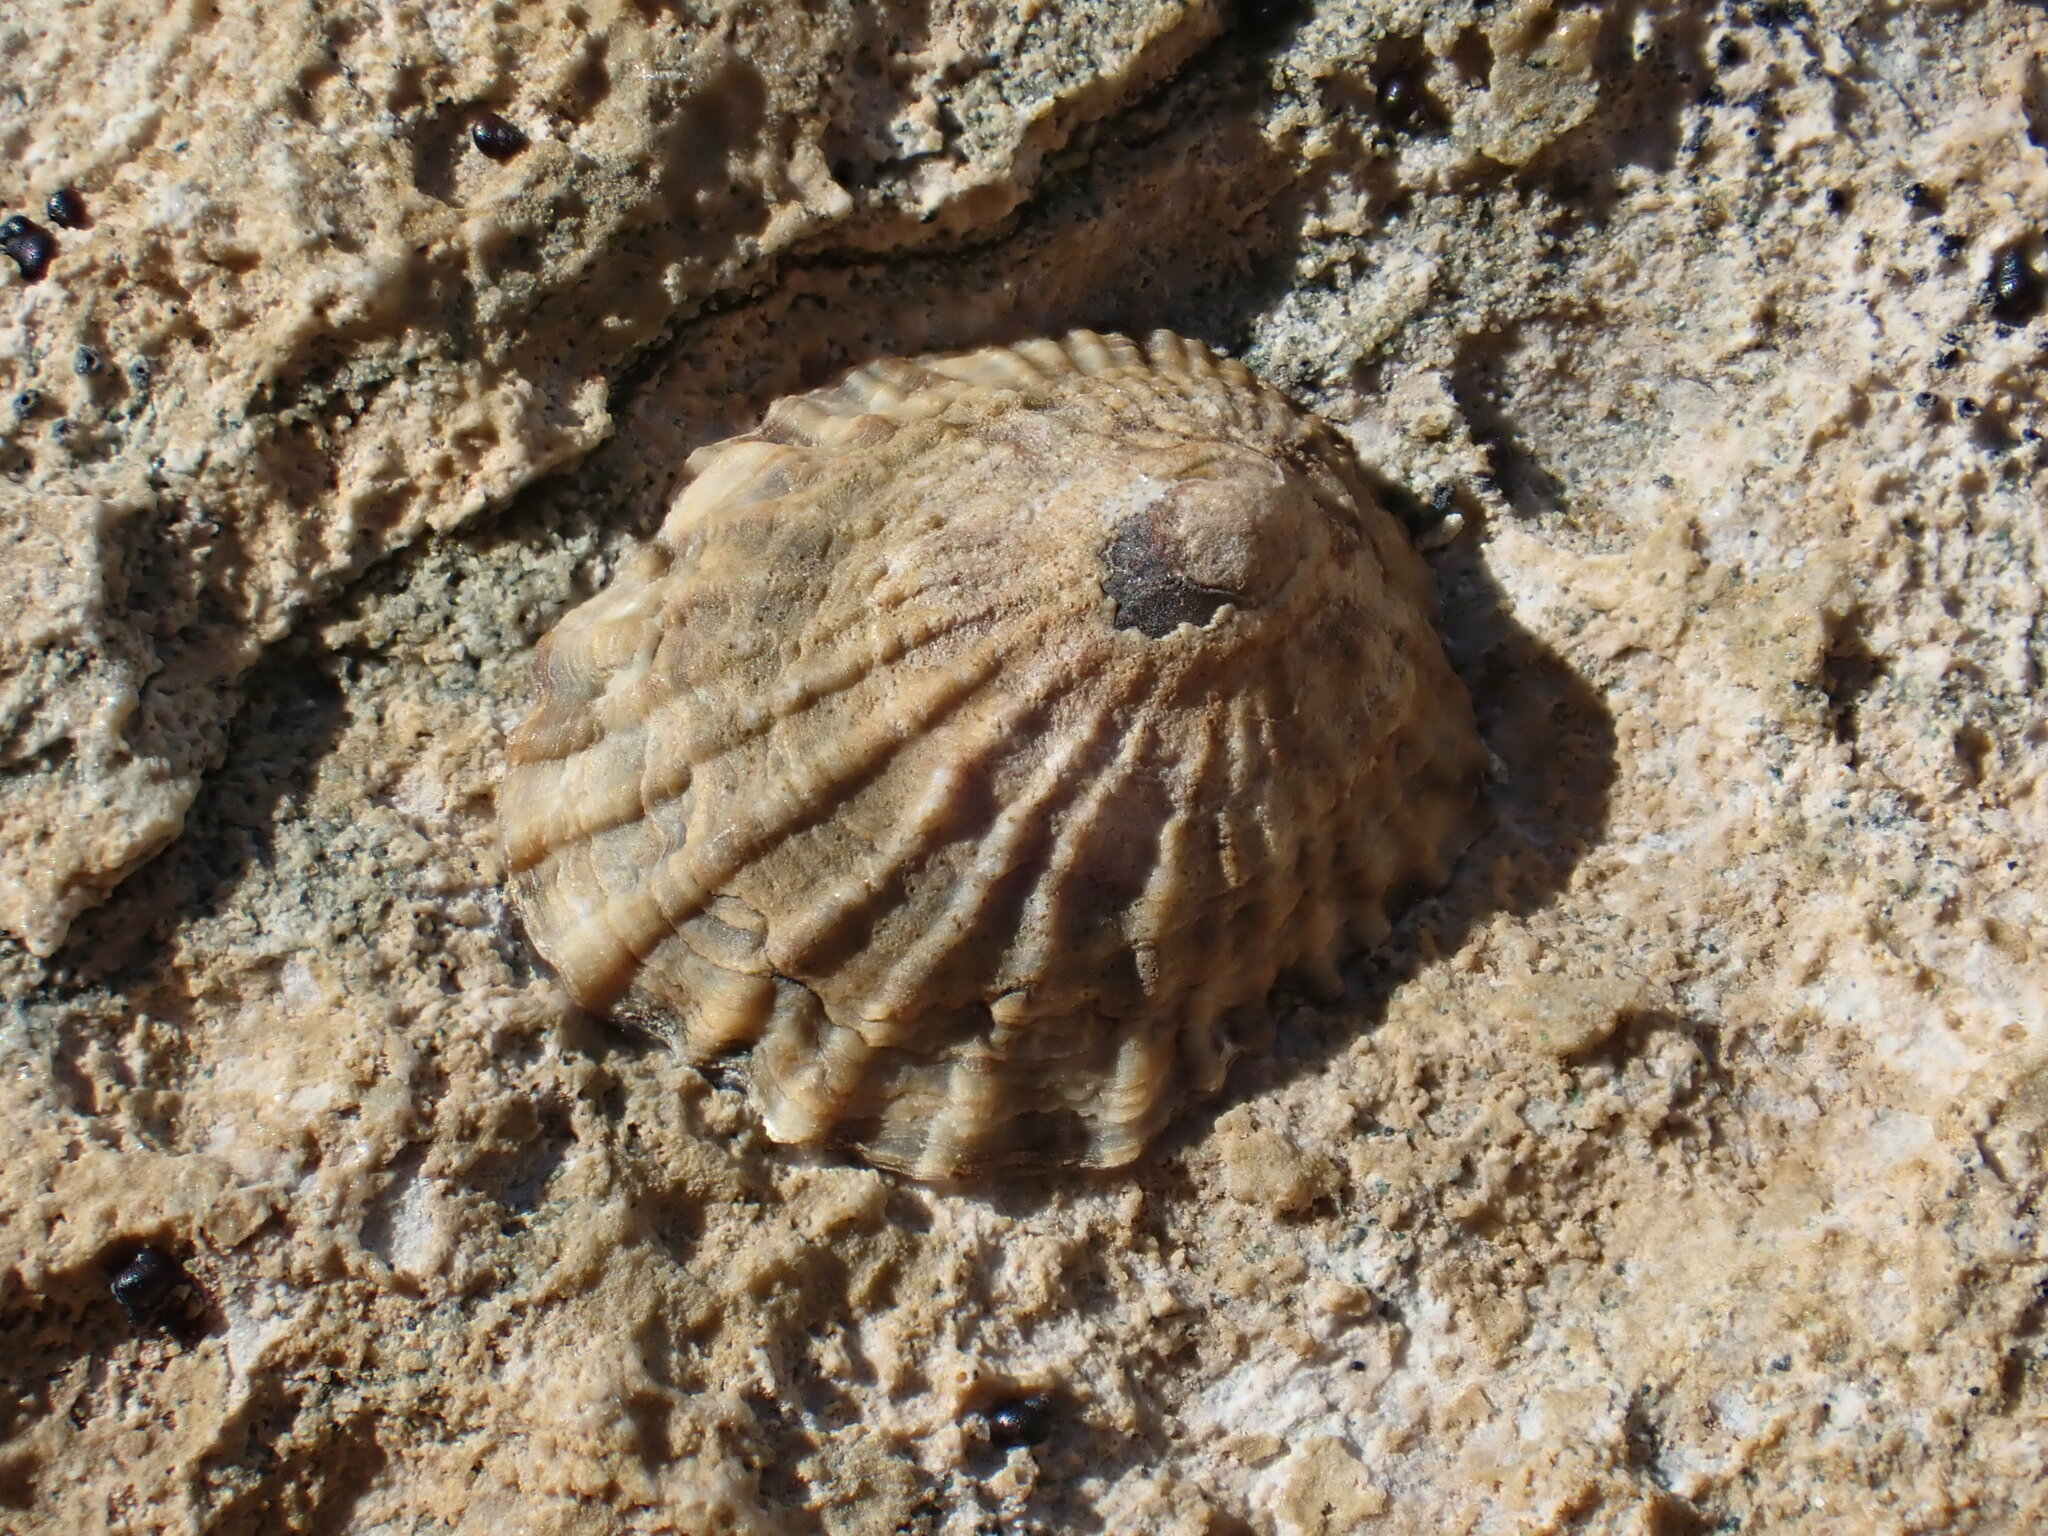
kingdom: Animalia
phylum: Mollusca
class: Gastropoda
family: Lottiidae
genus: Notoacmea
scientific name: Notoacmea cellanoides
